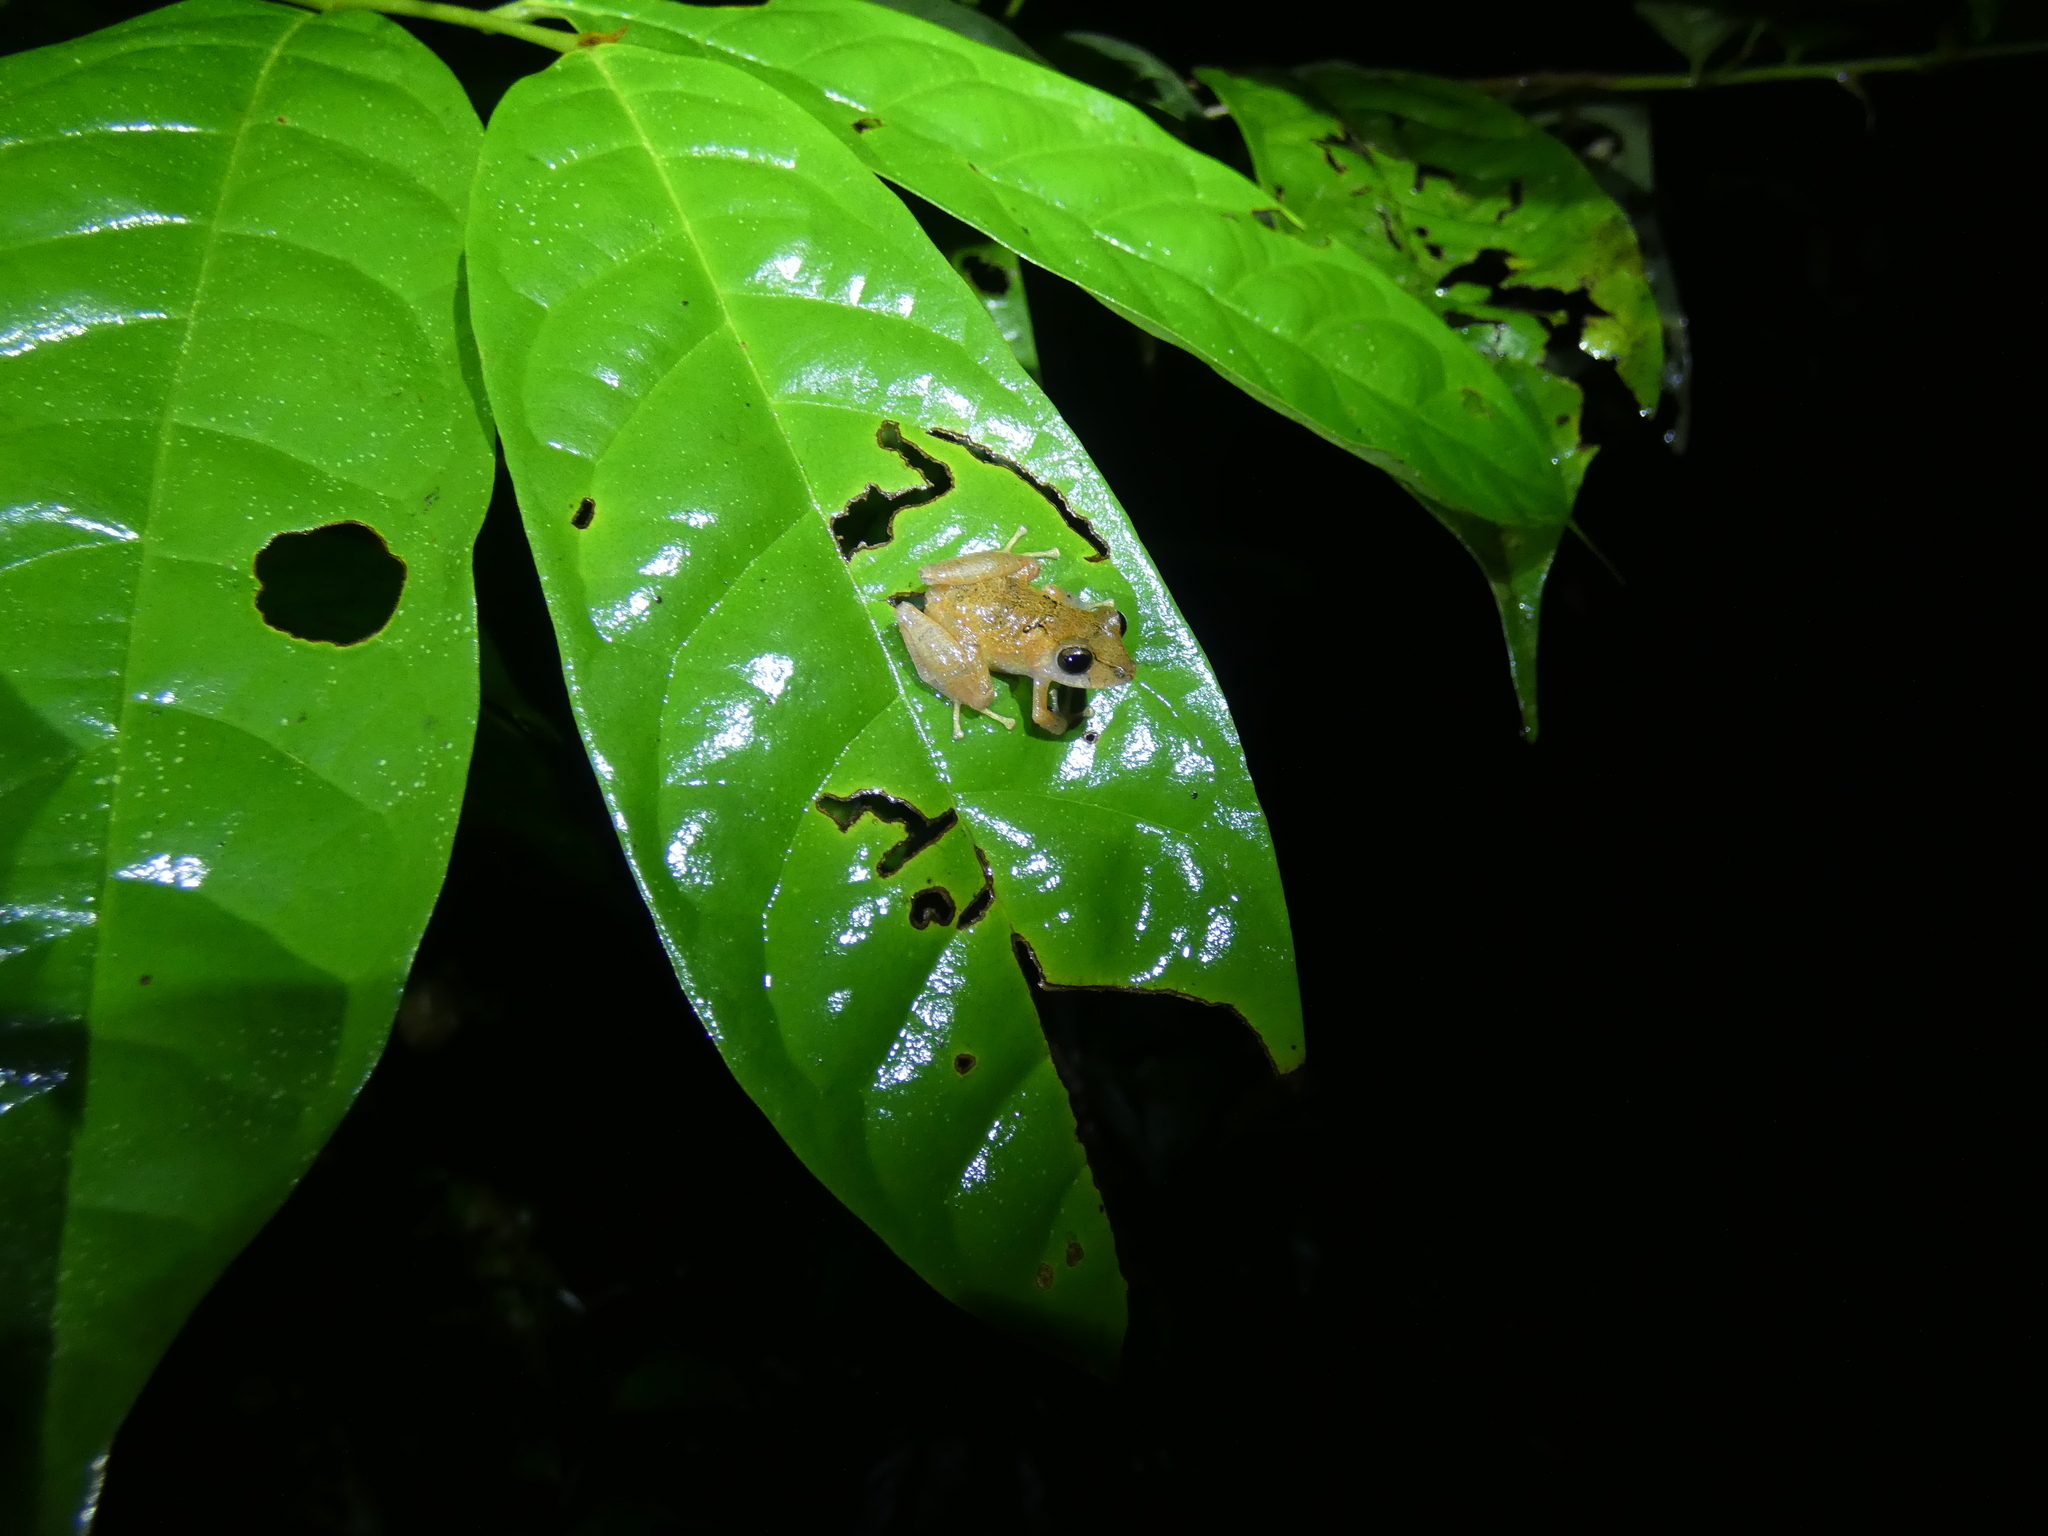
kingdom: Animalia
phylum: Chordata
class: Amphibia
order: Anura
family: Craugastoridae
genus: Pristimantis
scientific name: Pristimantis kichwarum
